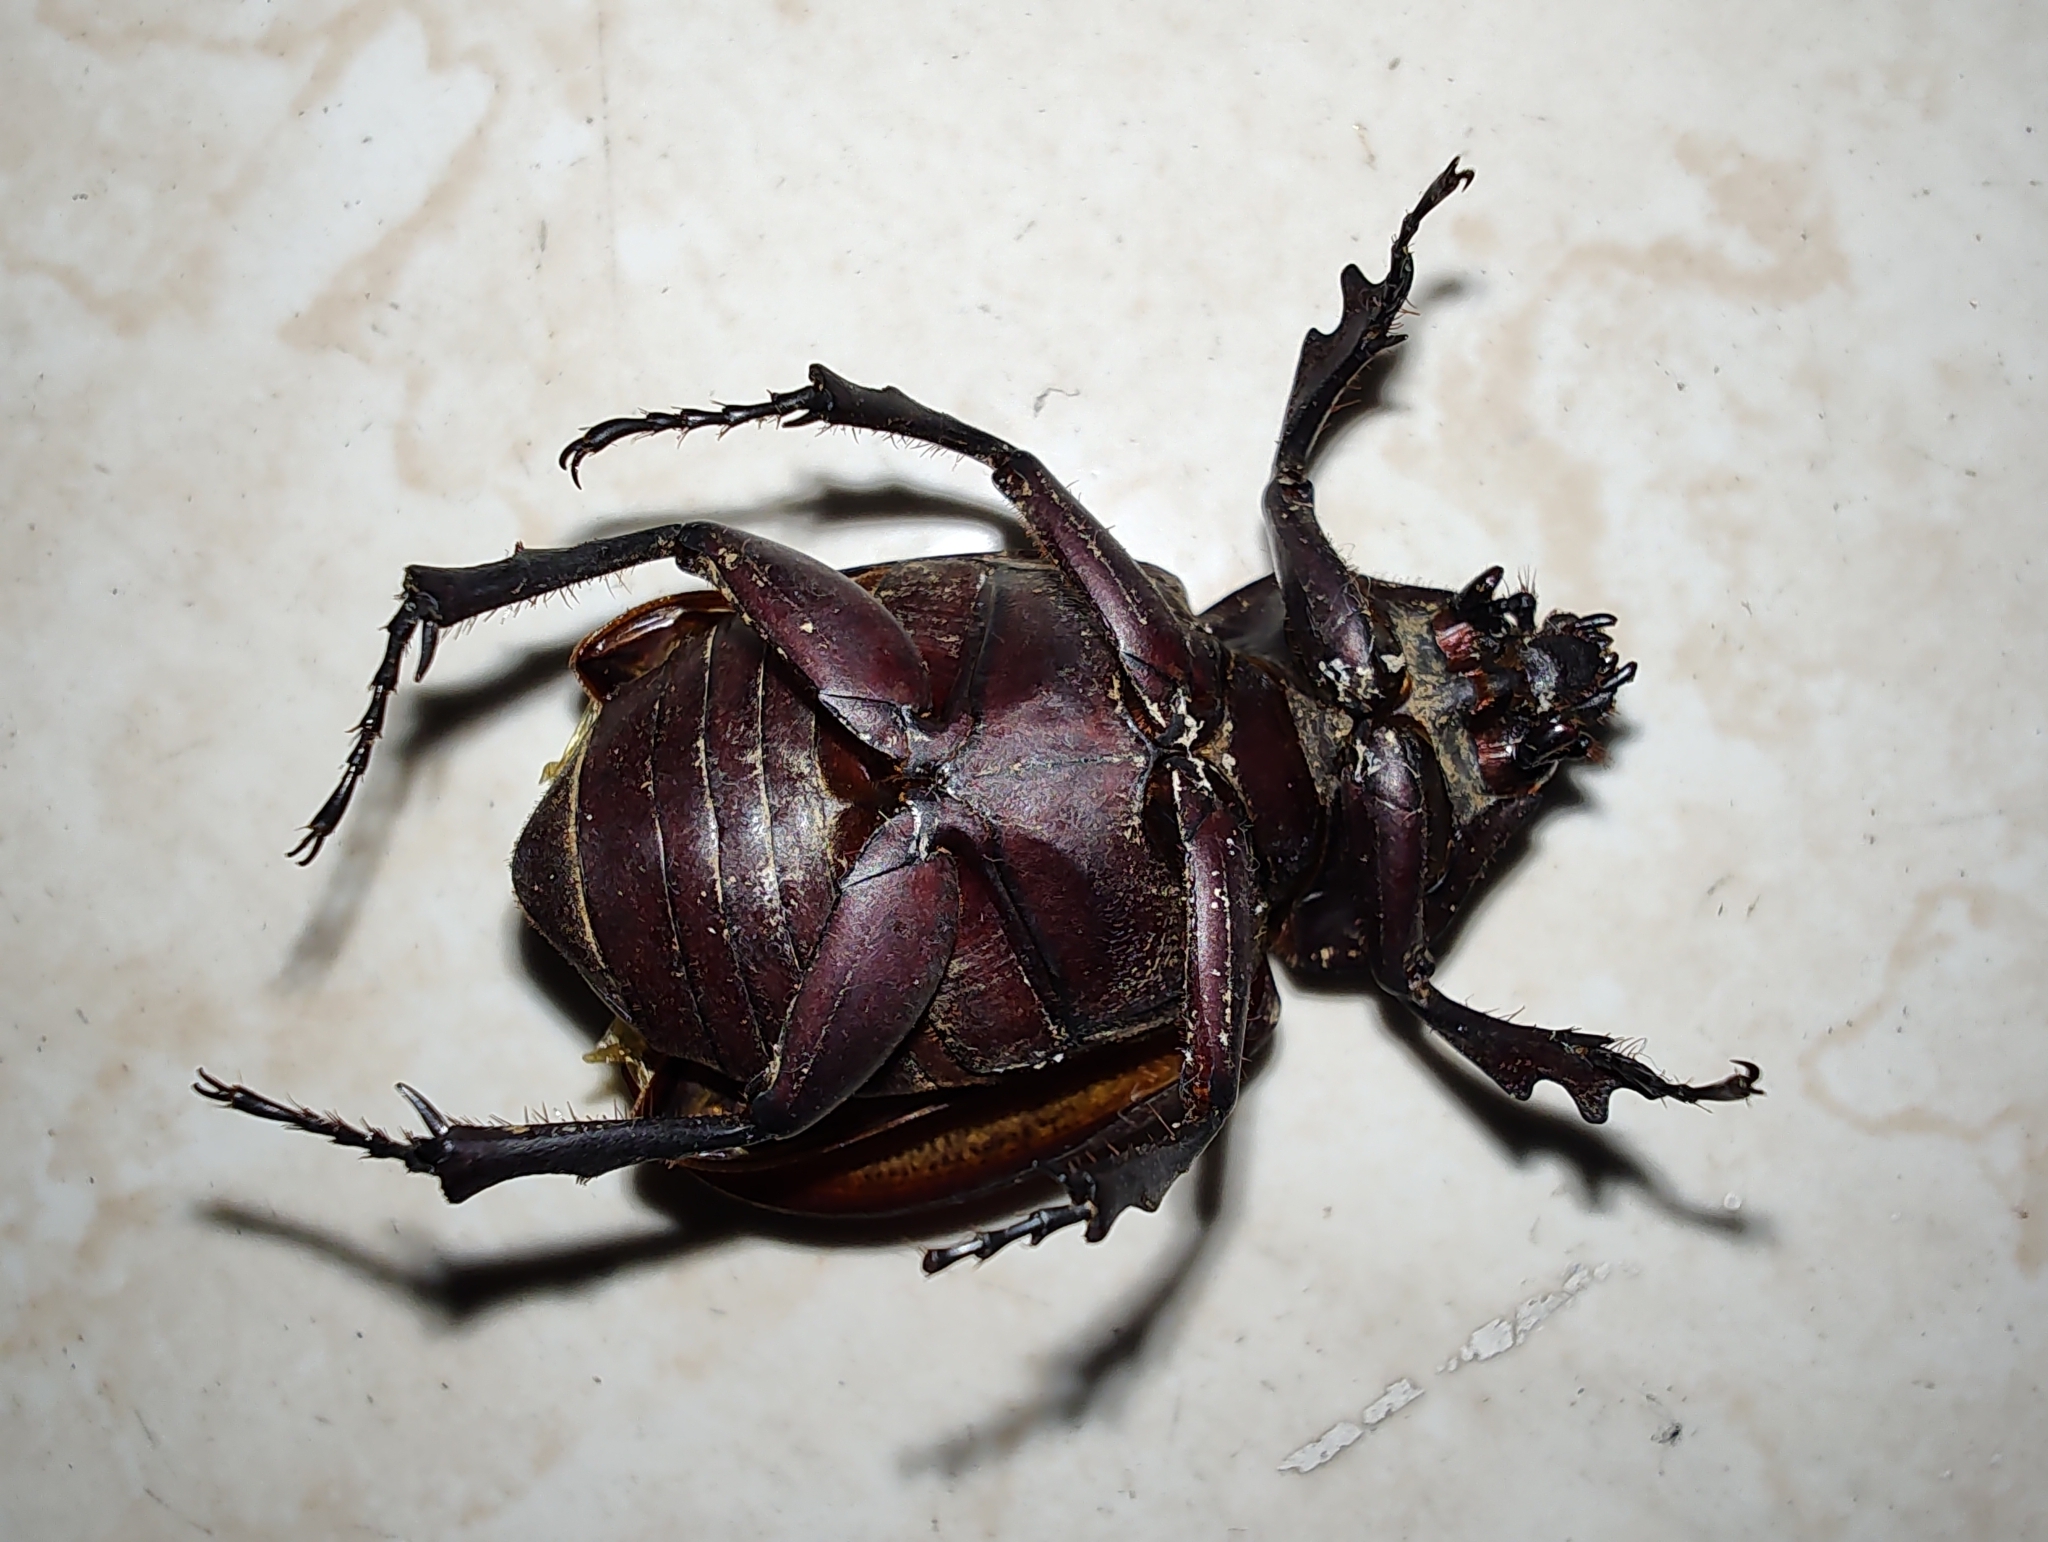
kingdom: Animalia
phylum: Arthropoda
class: Insecta
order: Coleoptera
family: Scarabaeidae
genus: Coelosis
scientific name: Coelosis biloba
